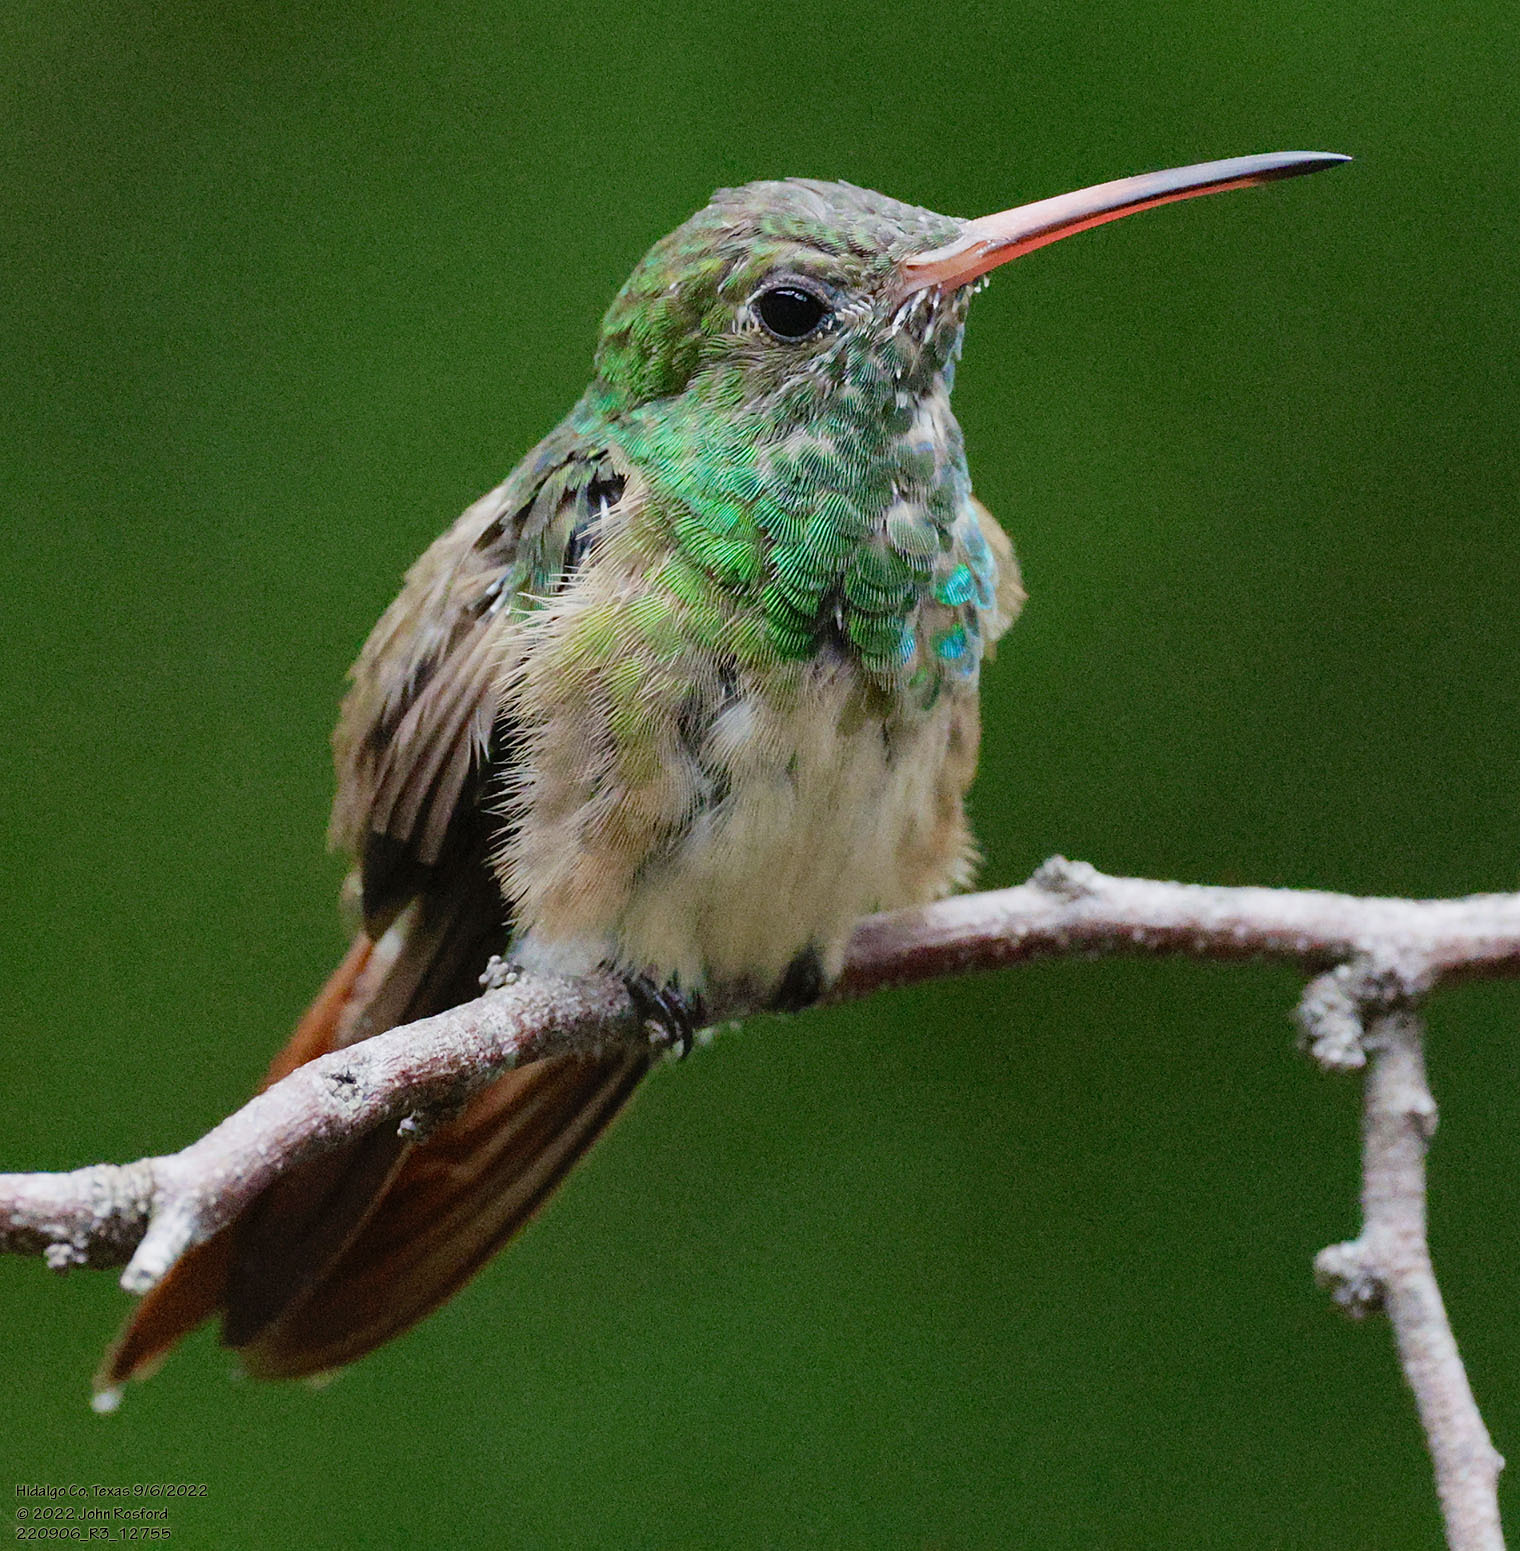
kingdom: Animalia
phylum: Chordata
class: Aves
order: Apodiformes
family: Trochilidae
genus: Amazilia
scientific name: Amazilia yucatanensis
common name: Buff-bellied hummingbird
